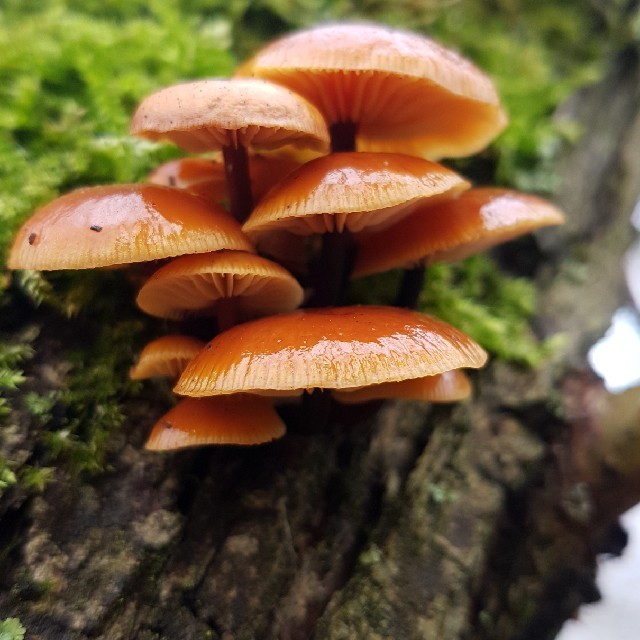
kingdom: Fungi
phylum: Basidiomycota
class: Agaricomycetes
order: Agaricales
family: Physalacriaceae
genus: Flammulina
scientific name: Flammulina
